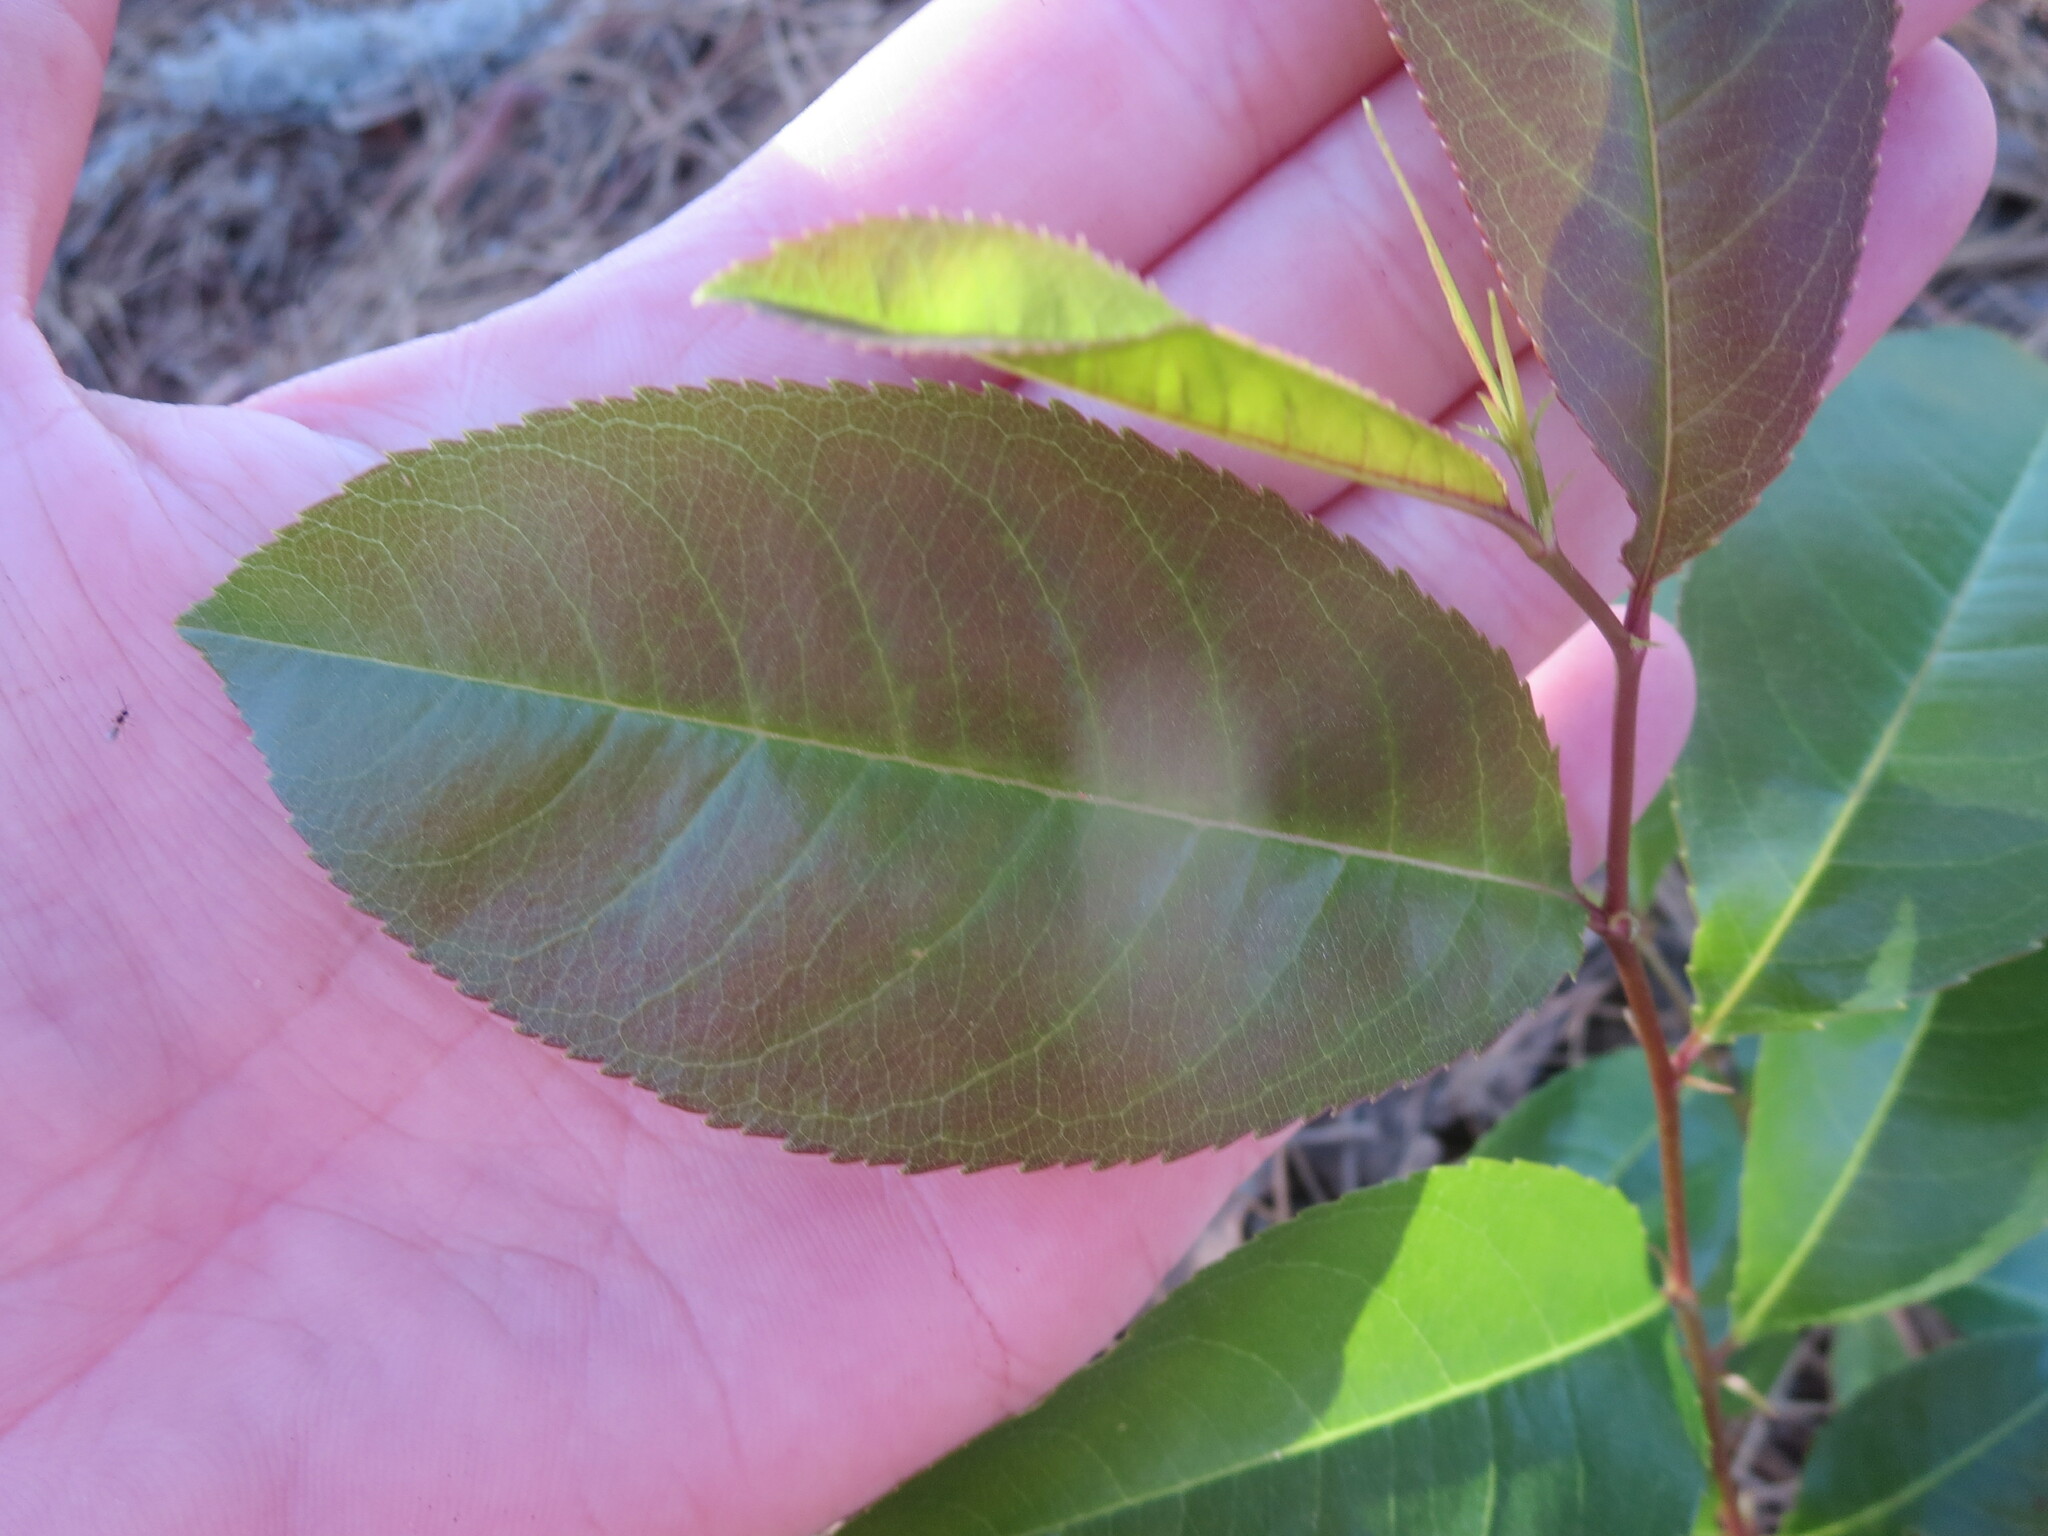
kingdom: Plantae
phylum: Tracheophyta
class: Magnoliopsida
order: Rosales
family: Rosaceae
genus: Prunus
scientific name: Prunus serotina
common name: Black cherry
